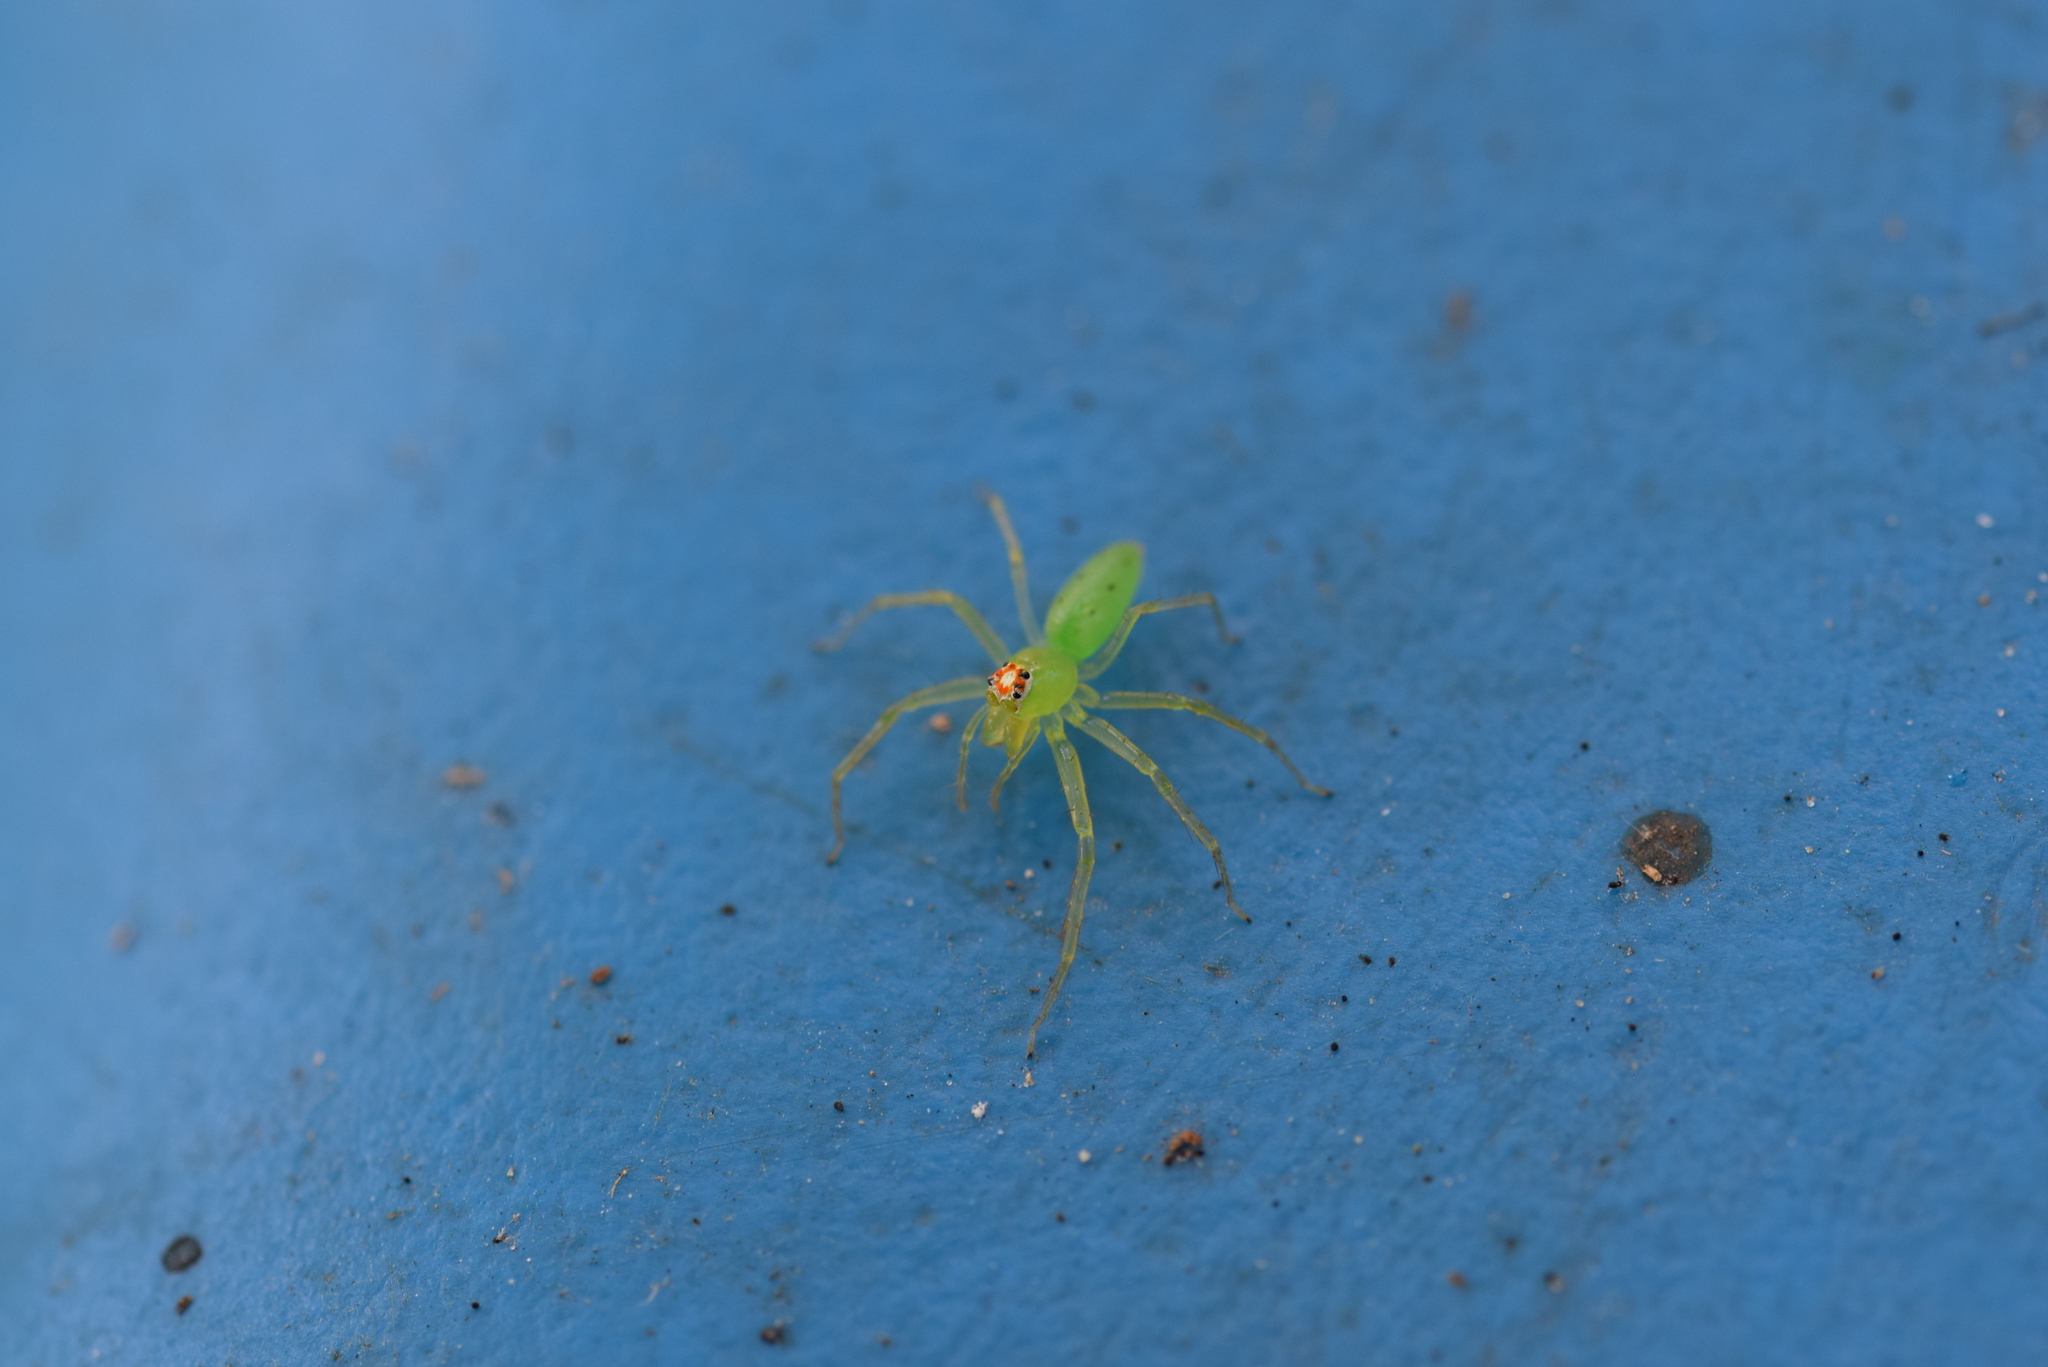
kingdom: Animalia
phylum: Arthropoda
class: Arachnida
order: Araneae
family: Salticidae
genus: Lyssomanes
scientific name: Lyssomanes viridis
